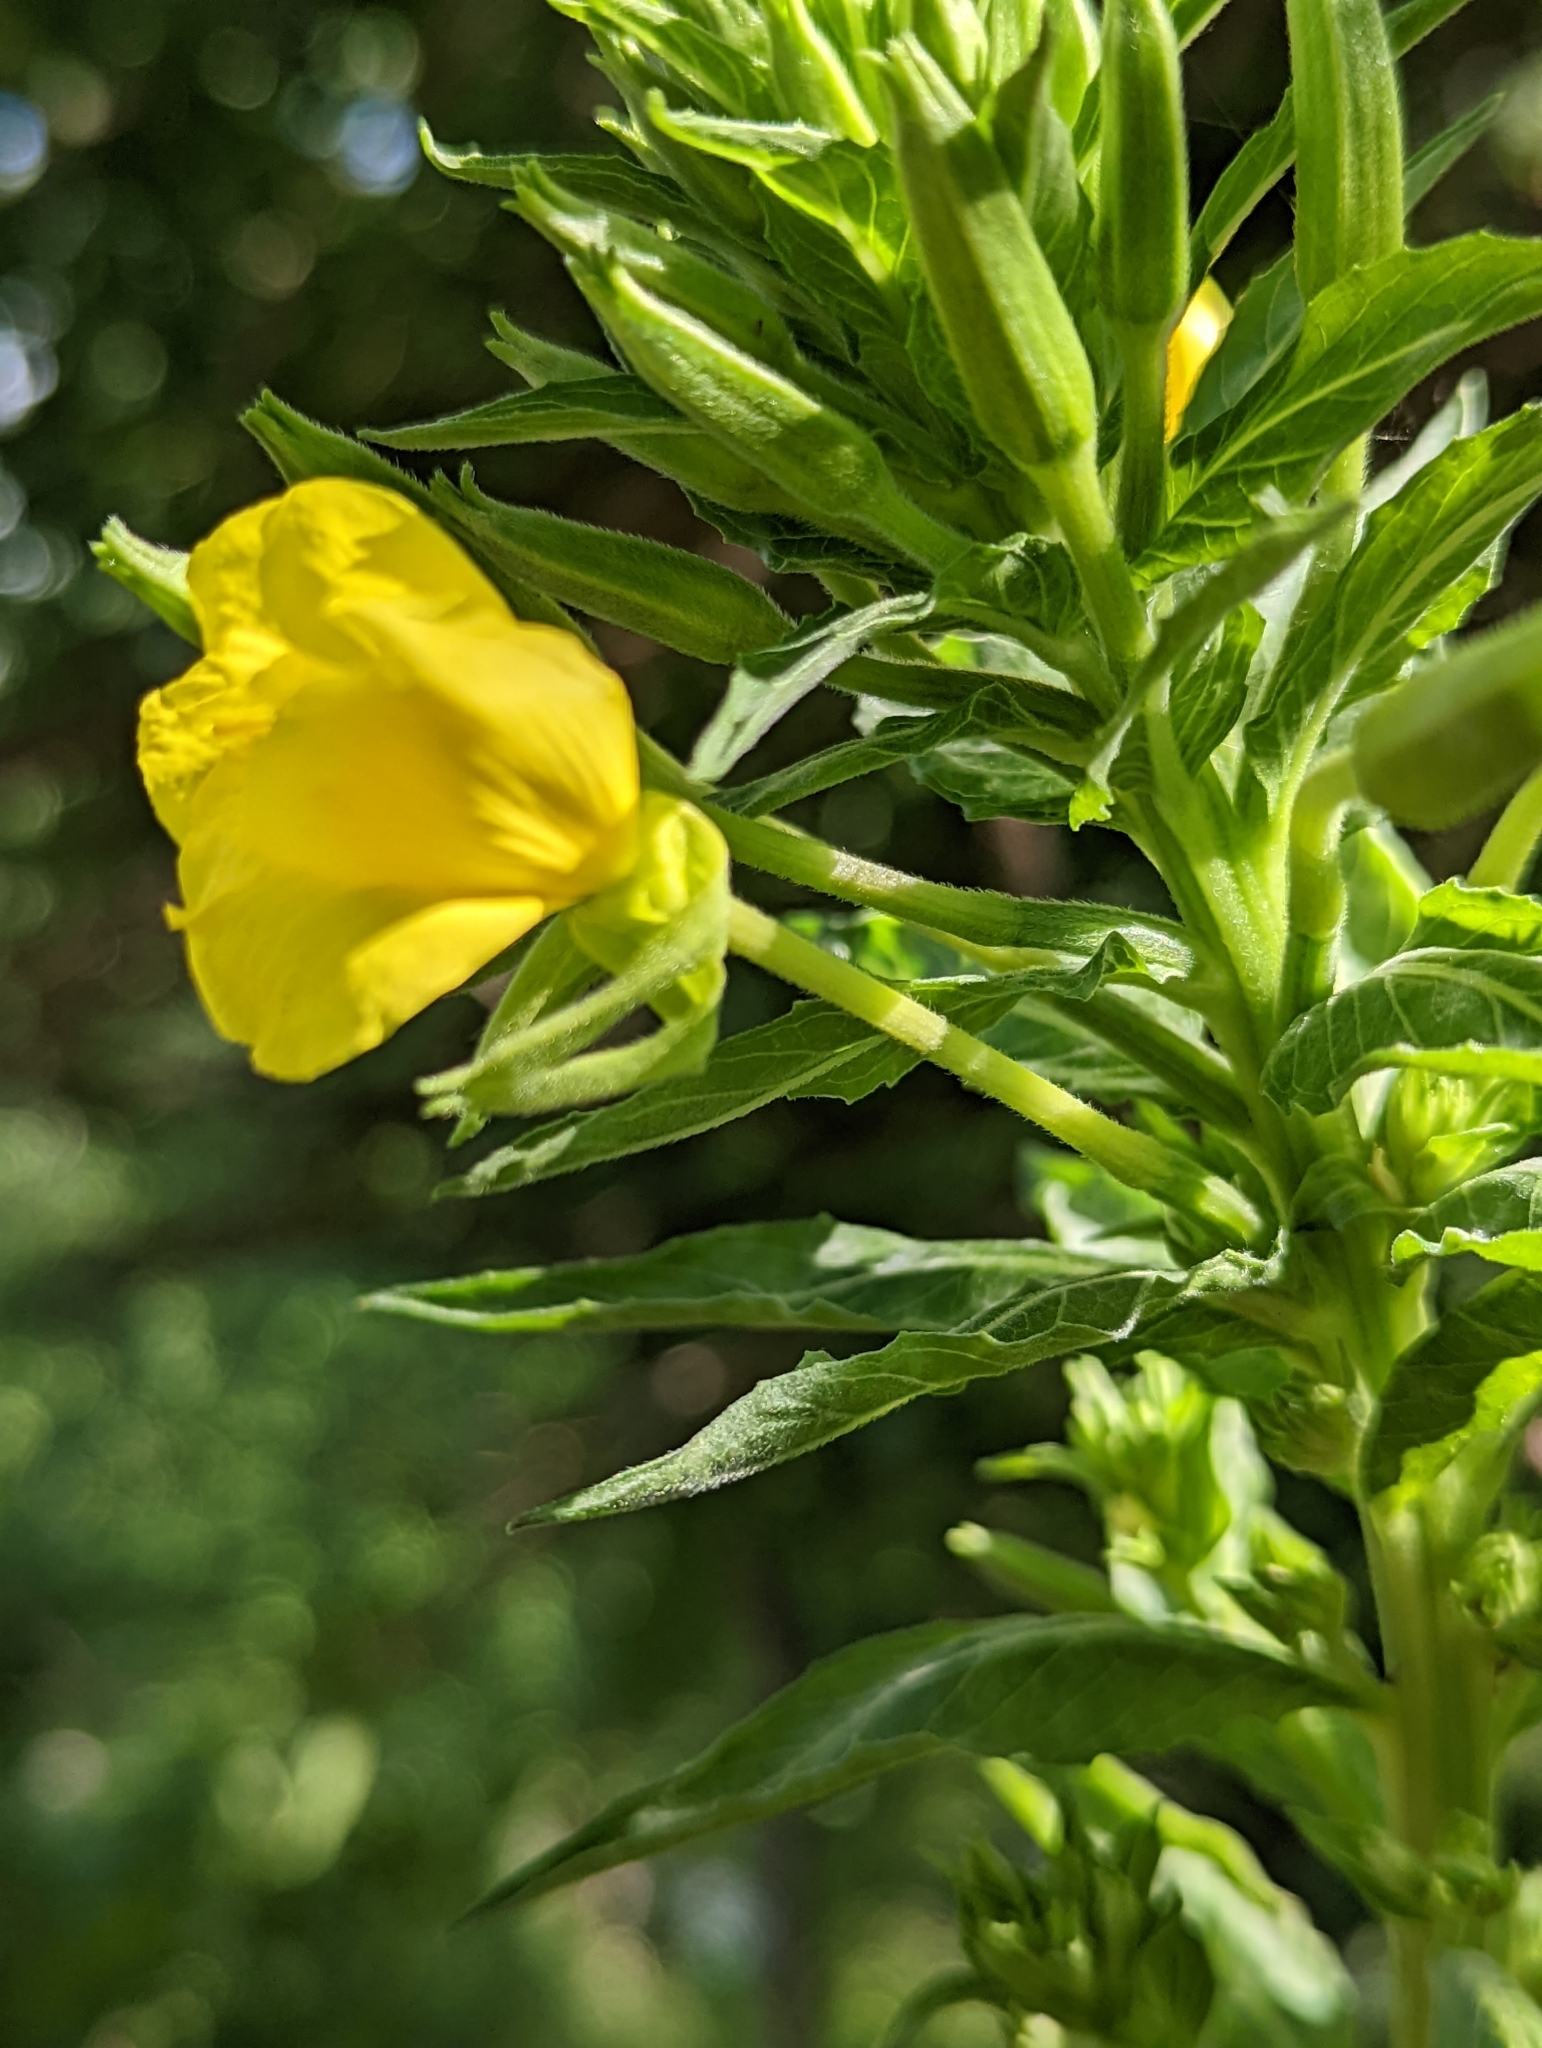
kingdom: Plantae
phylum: Tracheophyta
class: Magnoliopsida
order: Myrtales
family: Onagraceae
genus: Oenothera
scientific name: Oenothera biennis
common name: Common evening-primrose
